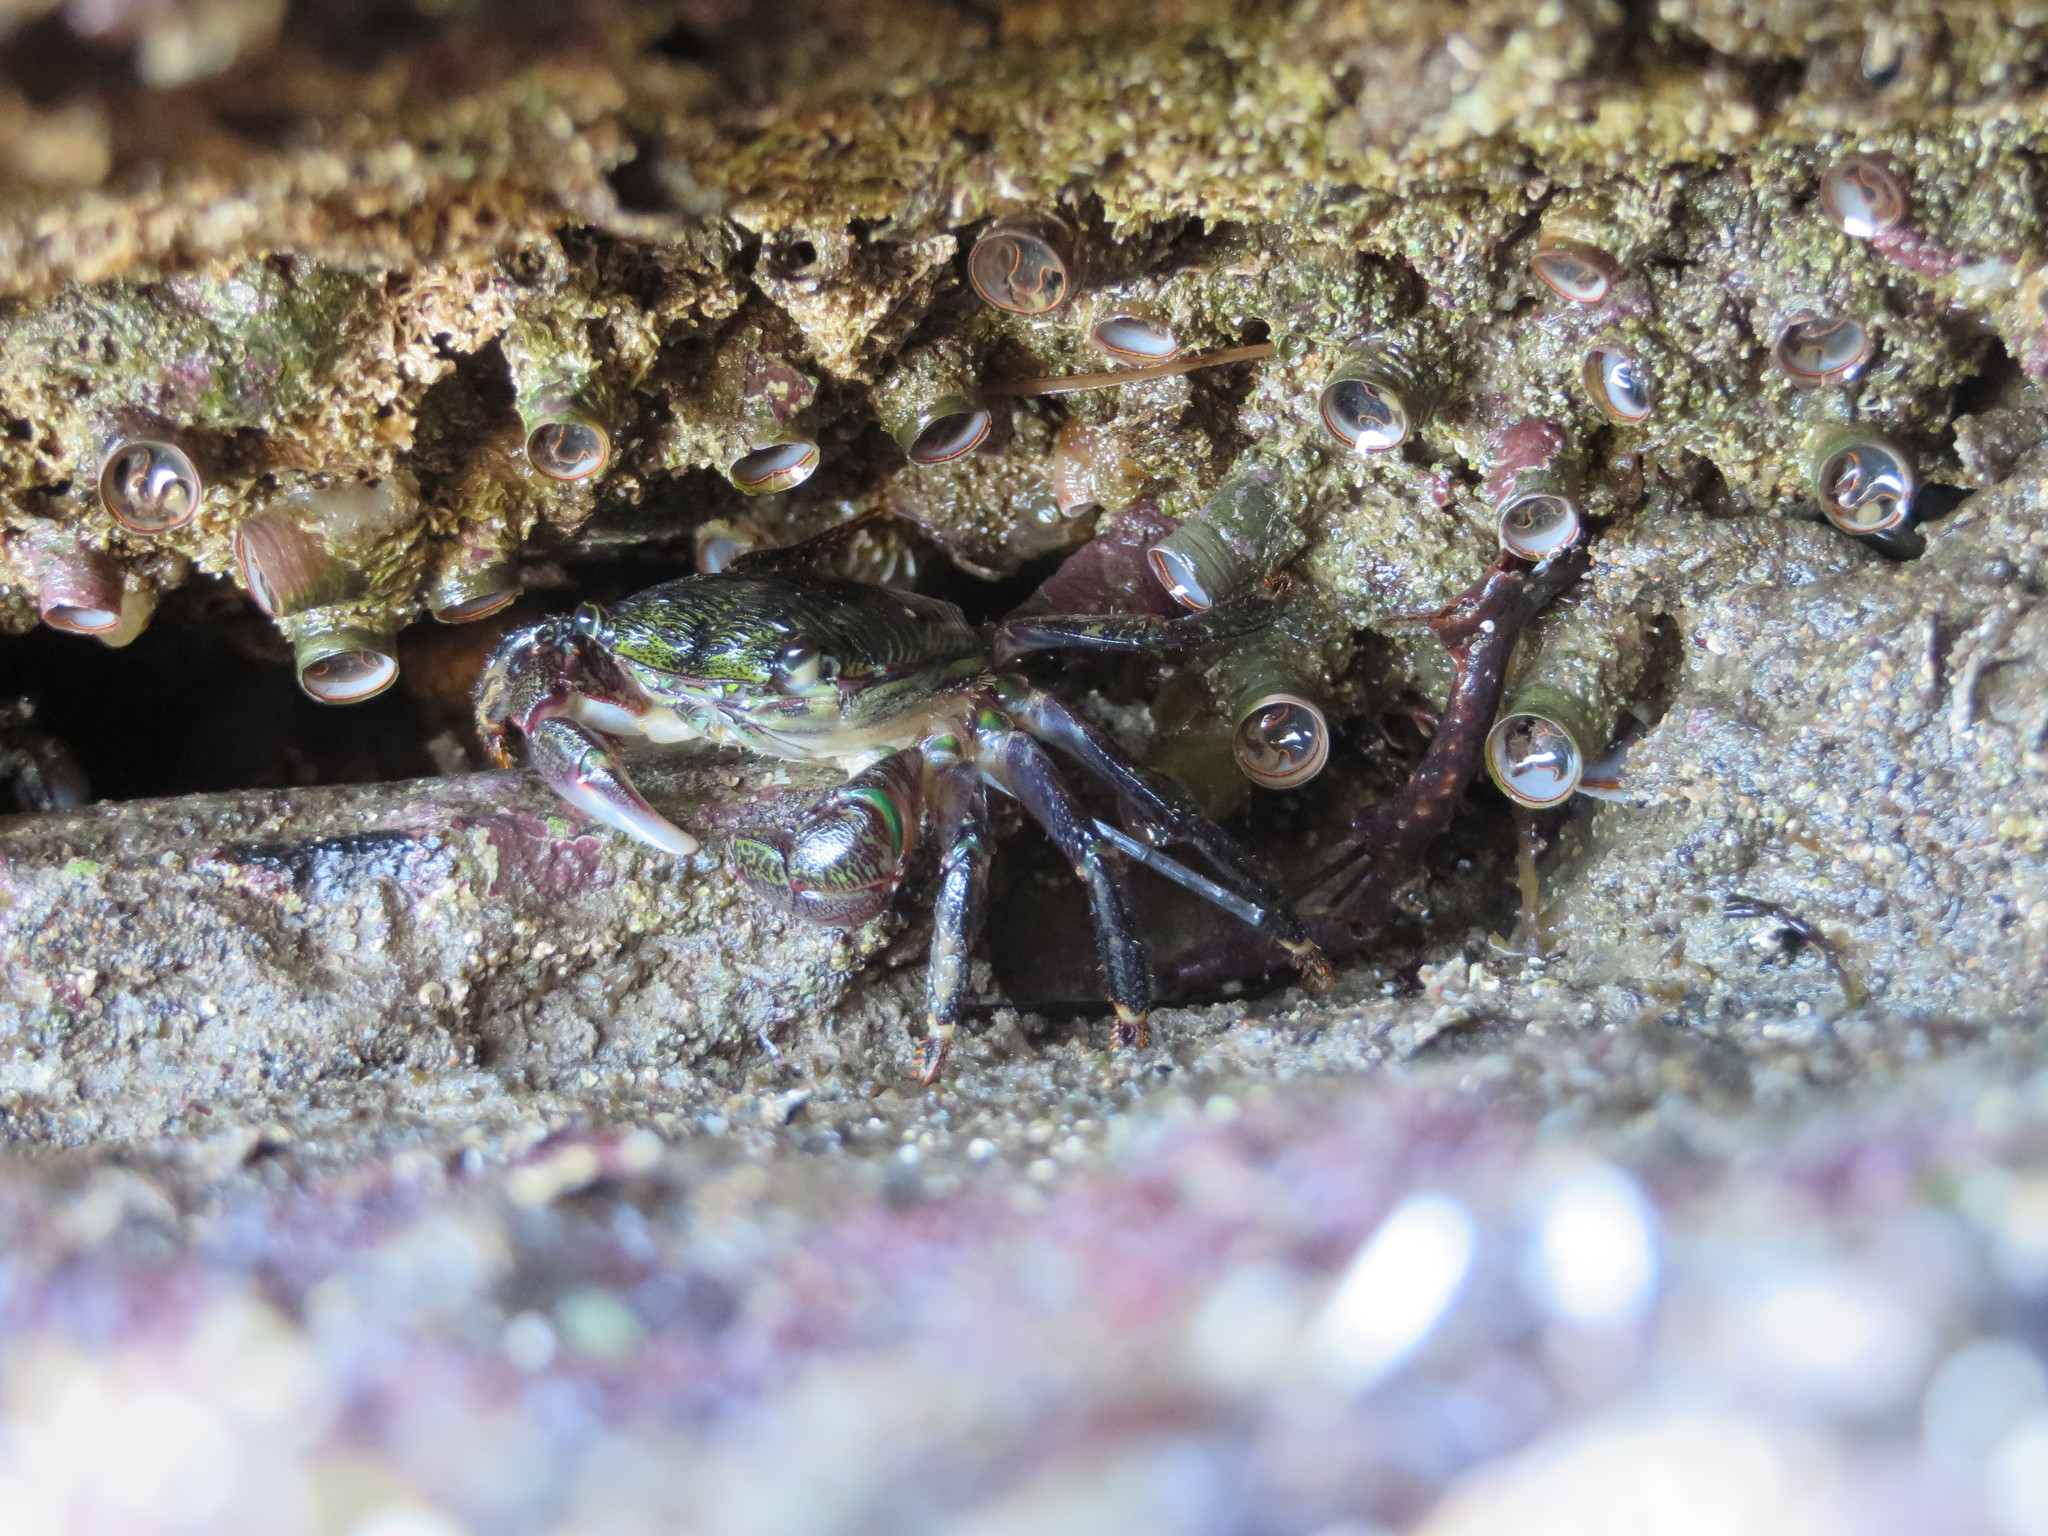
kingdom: Animalia
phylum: Arthropoda
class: Malacostraca
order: Decapoda
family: Grapsidae
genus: Pachygrapsus
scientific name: Pachygrapsus crassipes
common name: Striped shore crab
